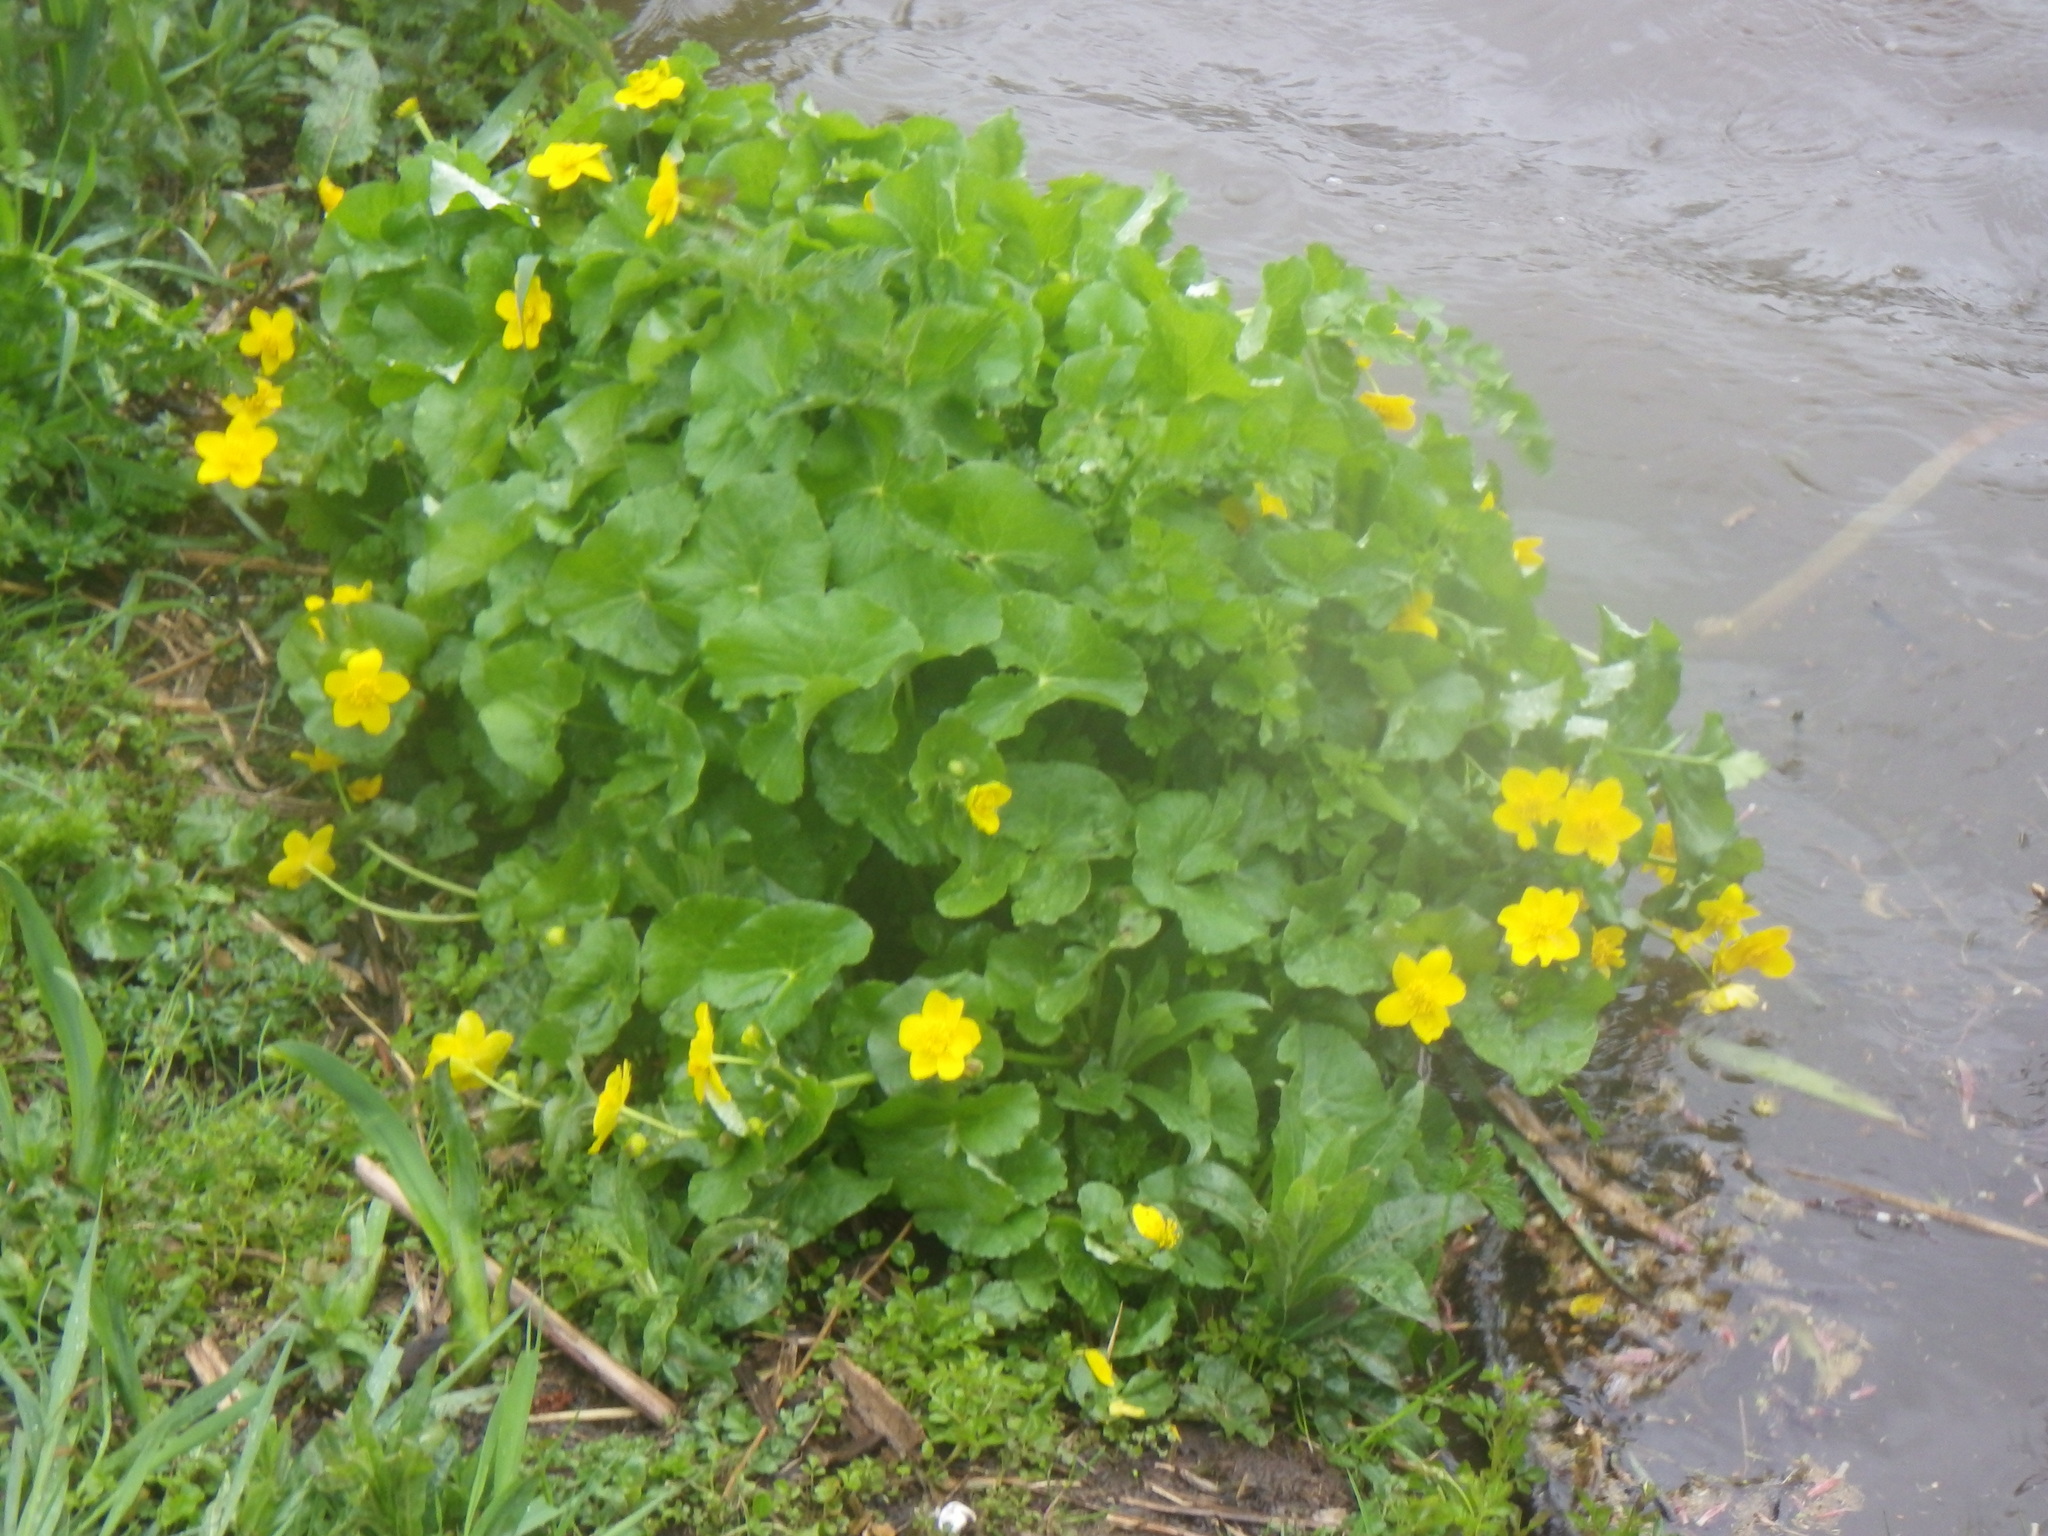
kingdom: Plantae
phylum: Tracheophyta
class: Magnoliopsida
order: Ranunculales
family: Ranunculaceae
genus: Caltha
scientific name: Caltha palustris
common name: Marsh marigold
